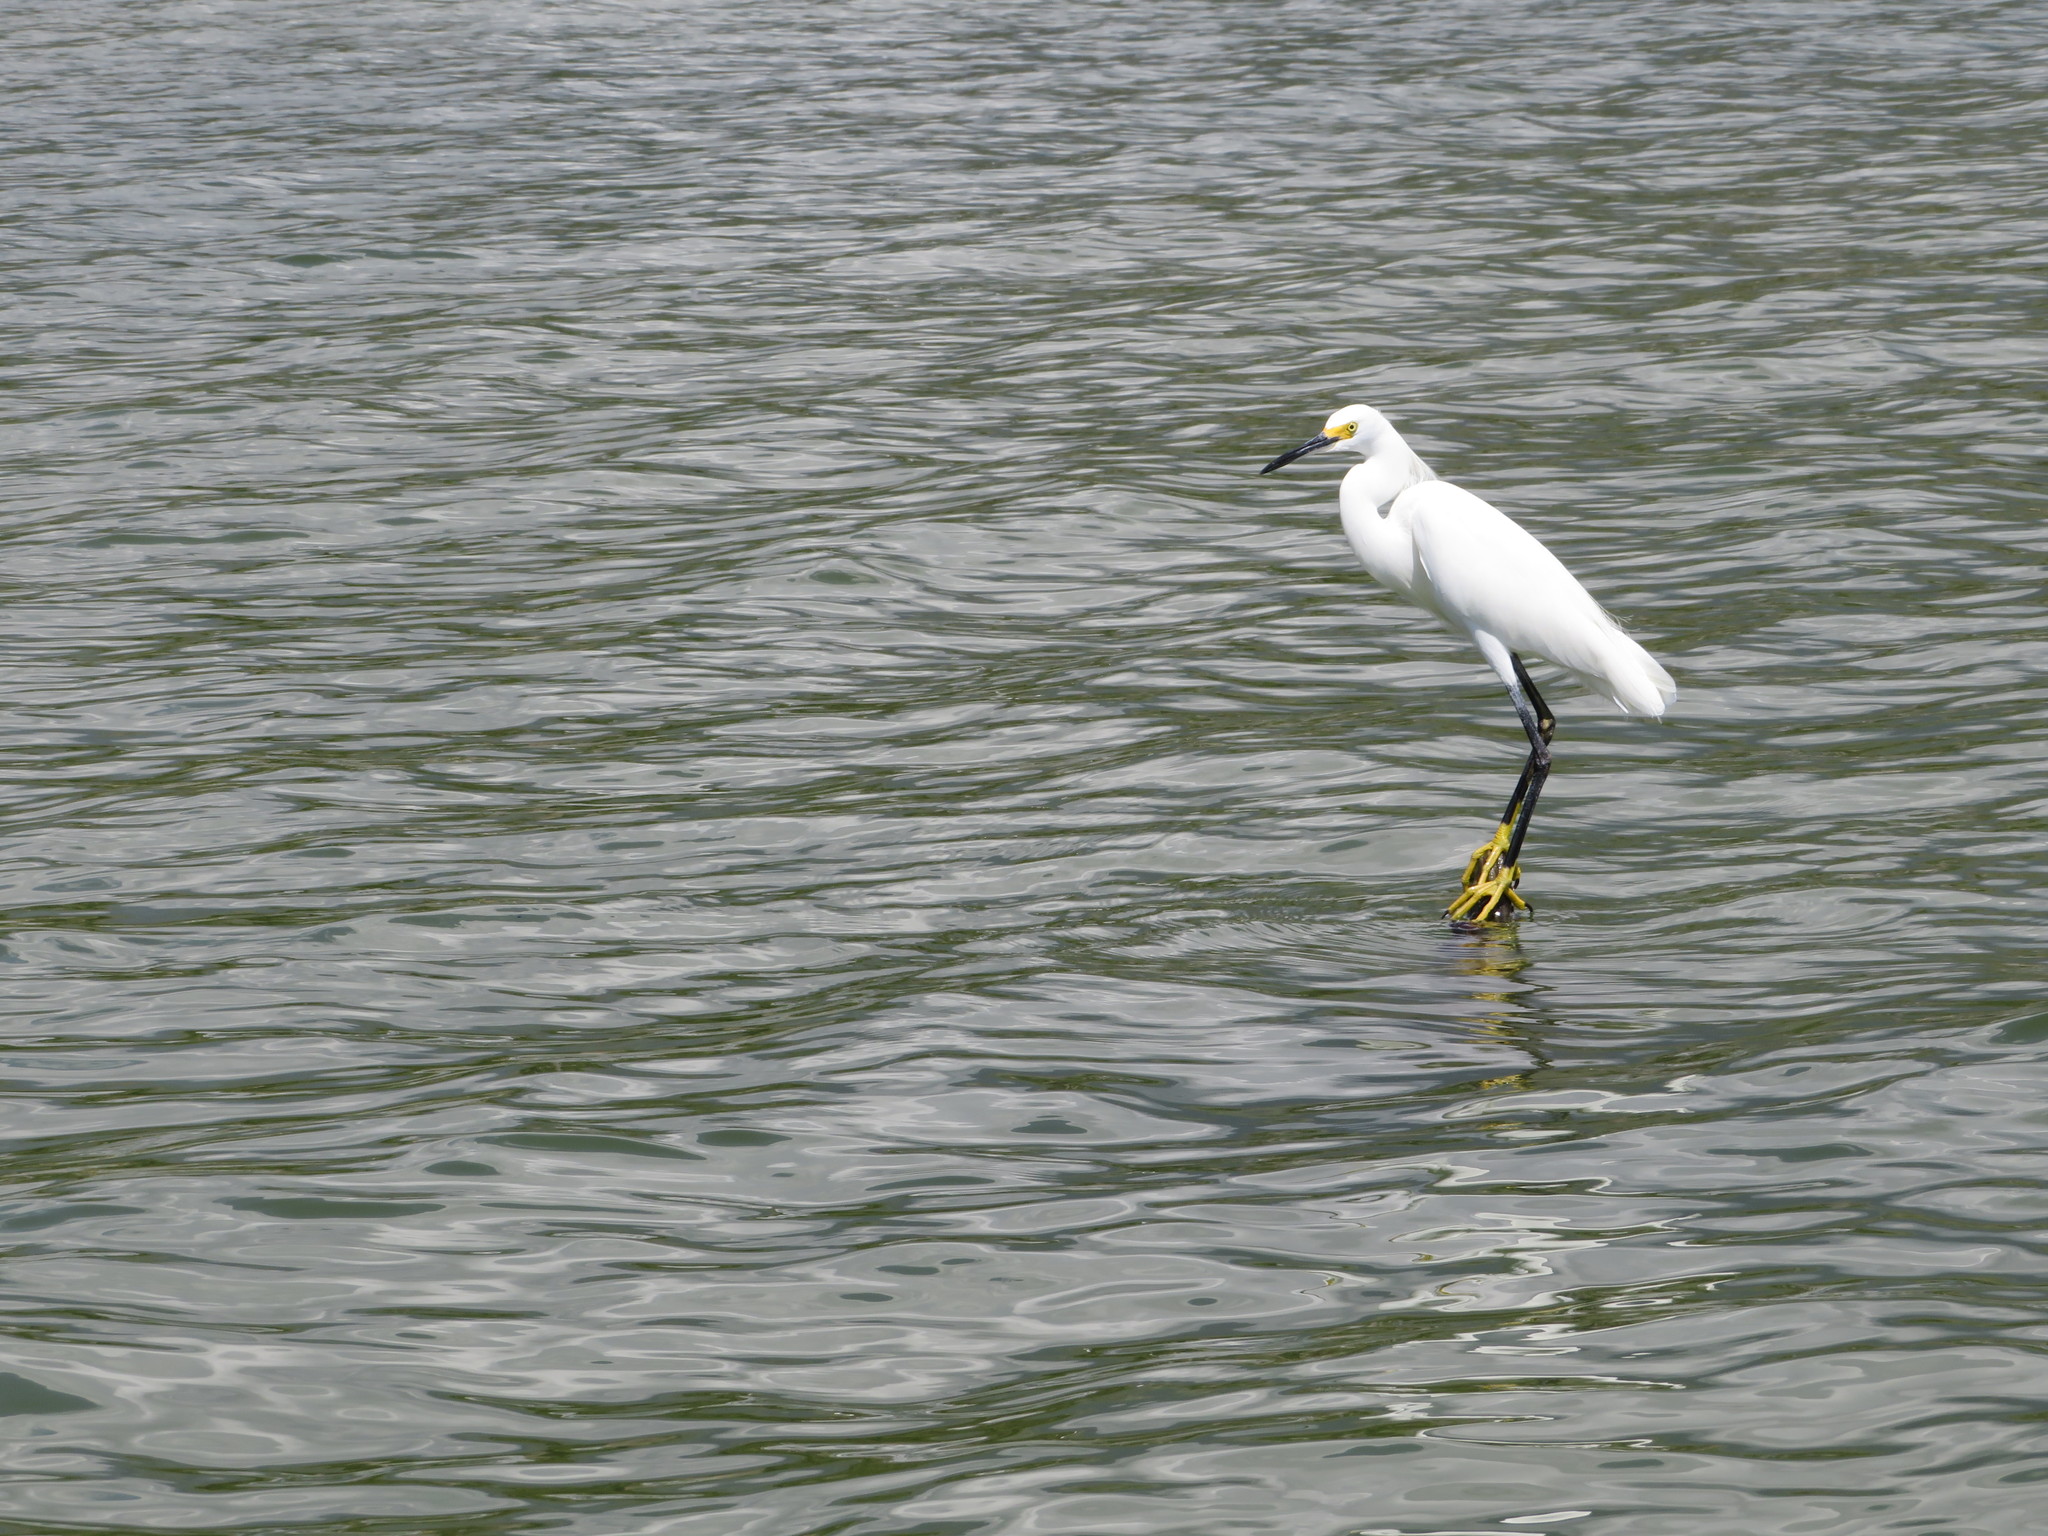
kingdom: Animalia
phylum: Chordata
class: Aves
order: Pelecaniformes
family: Ardeidae
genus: Egretta
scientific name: Egretta thula
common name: Snowy egret
